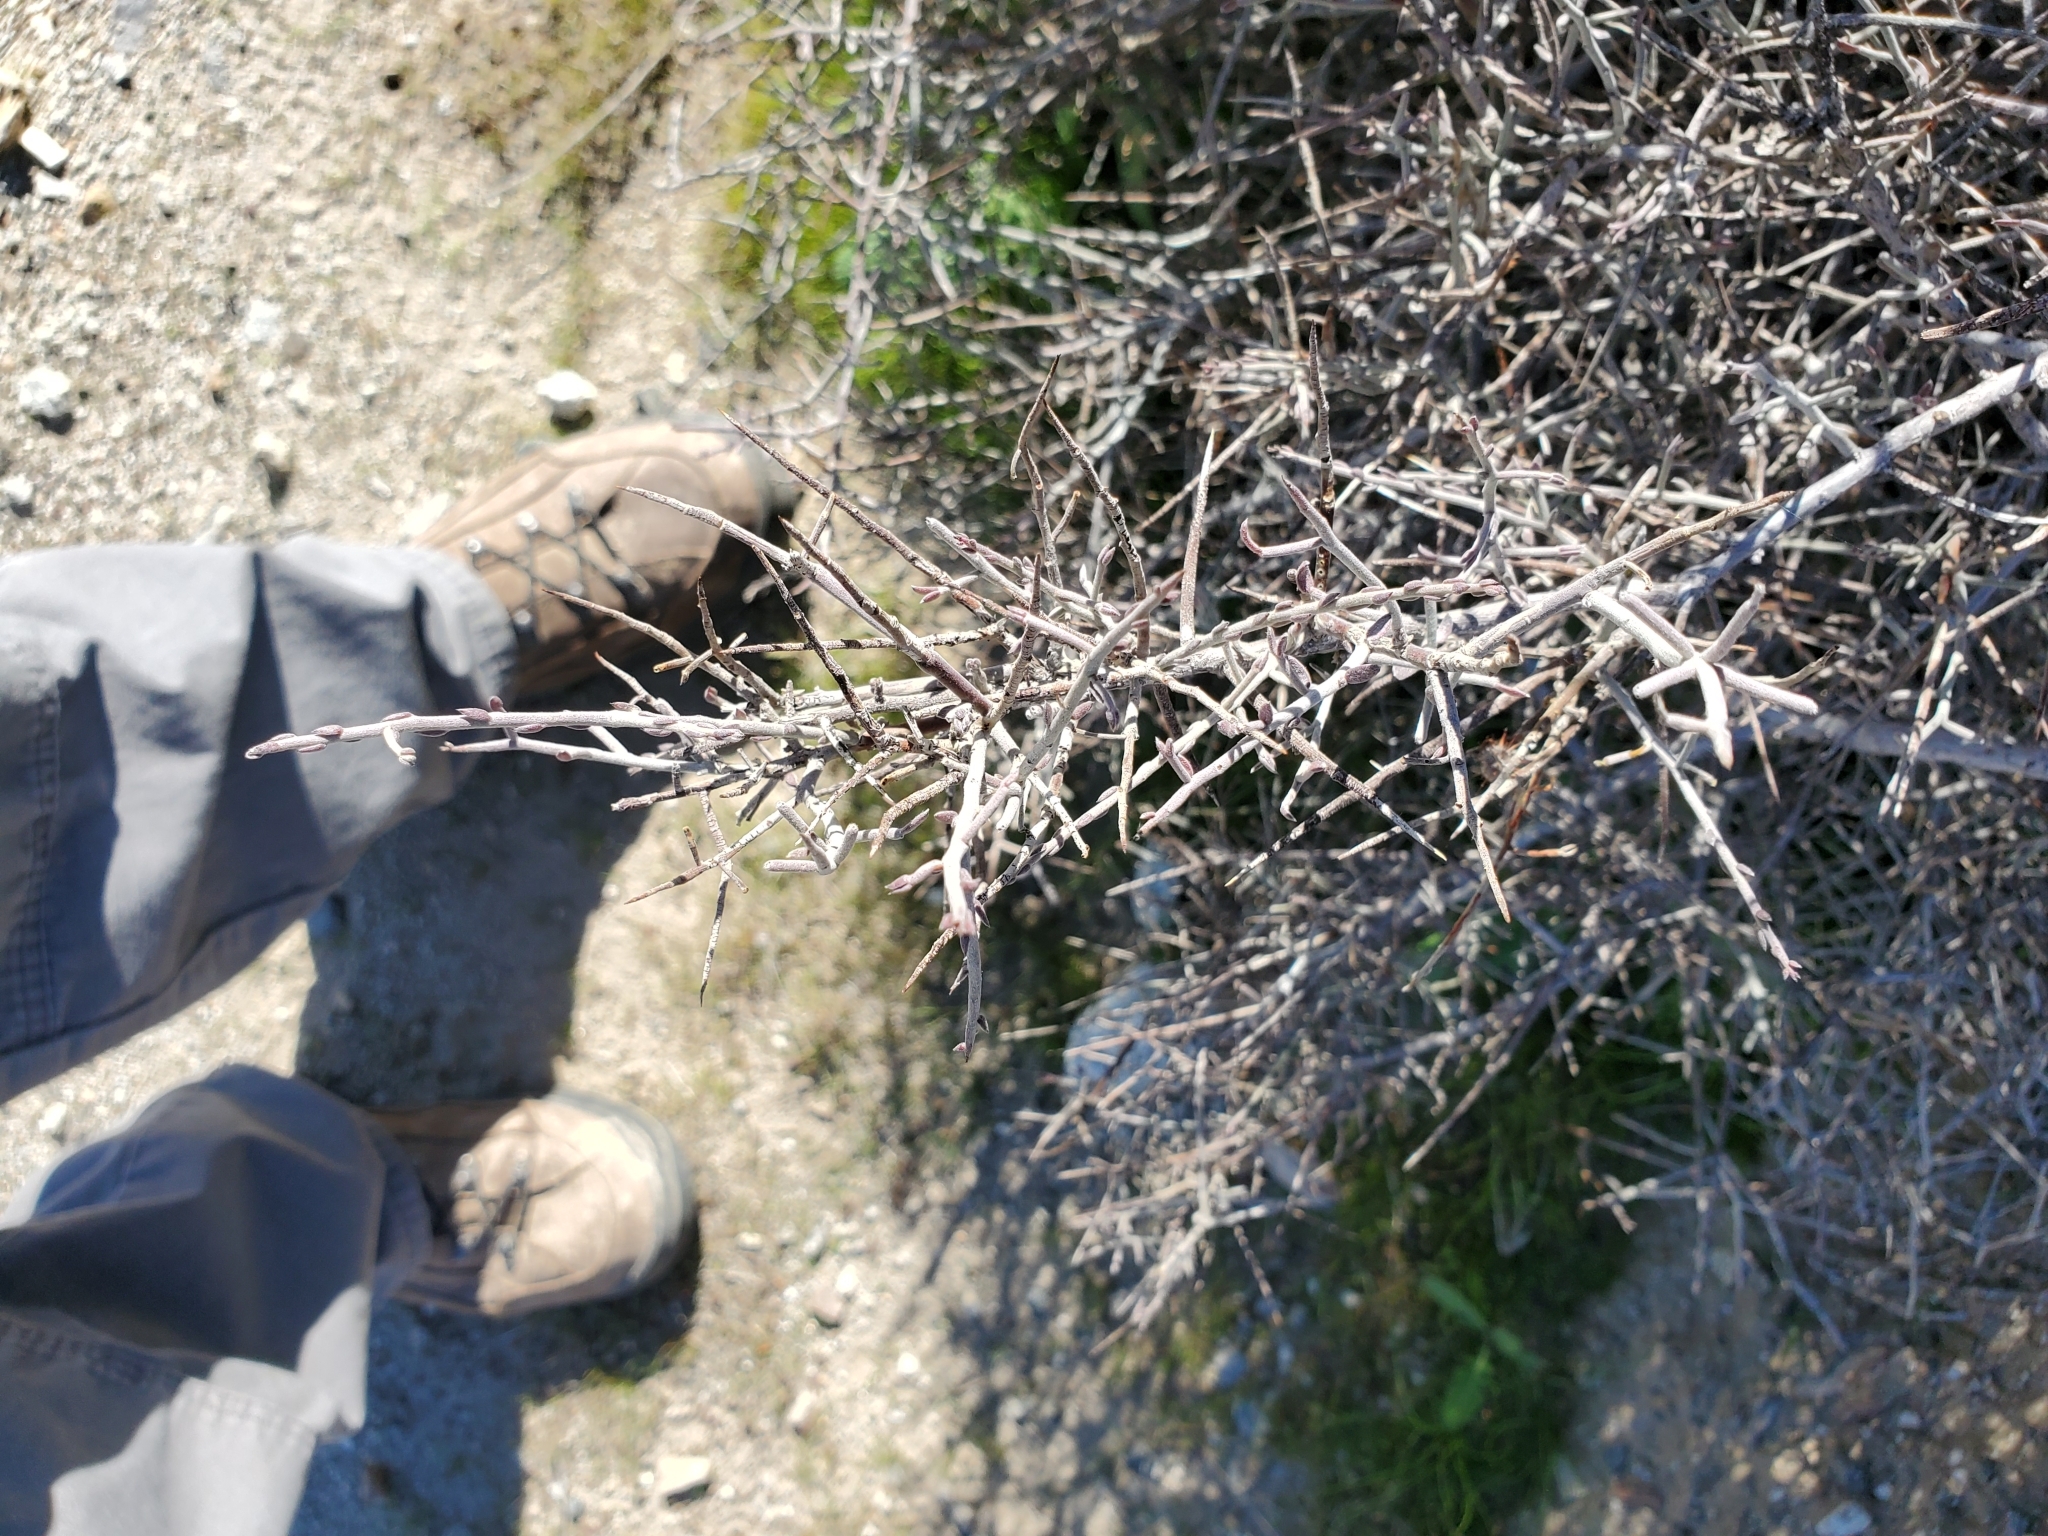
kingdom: Plantae
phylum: Tracheophyta
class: Magnoliopsida
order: Zygophyllales
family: Krameriaceae
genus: Krameria
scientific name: Krameria bicolor
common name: White ratany
